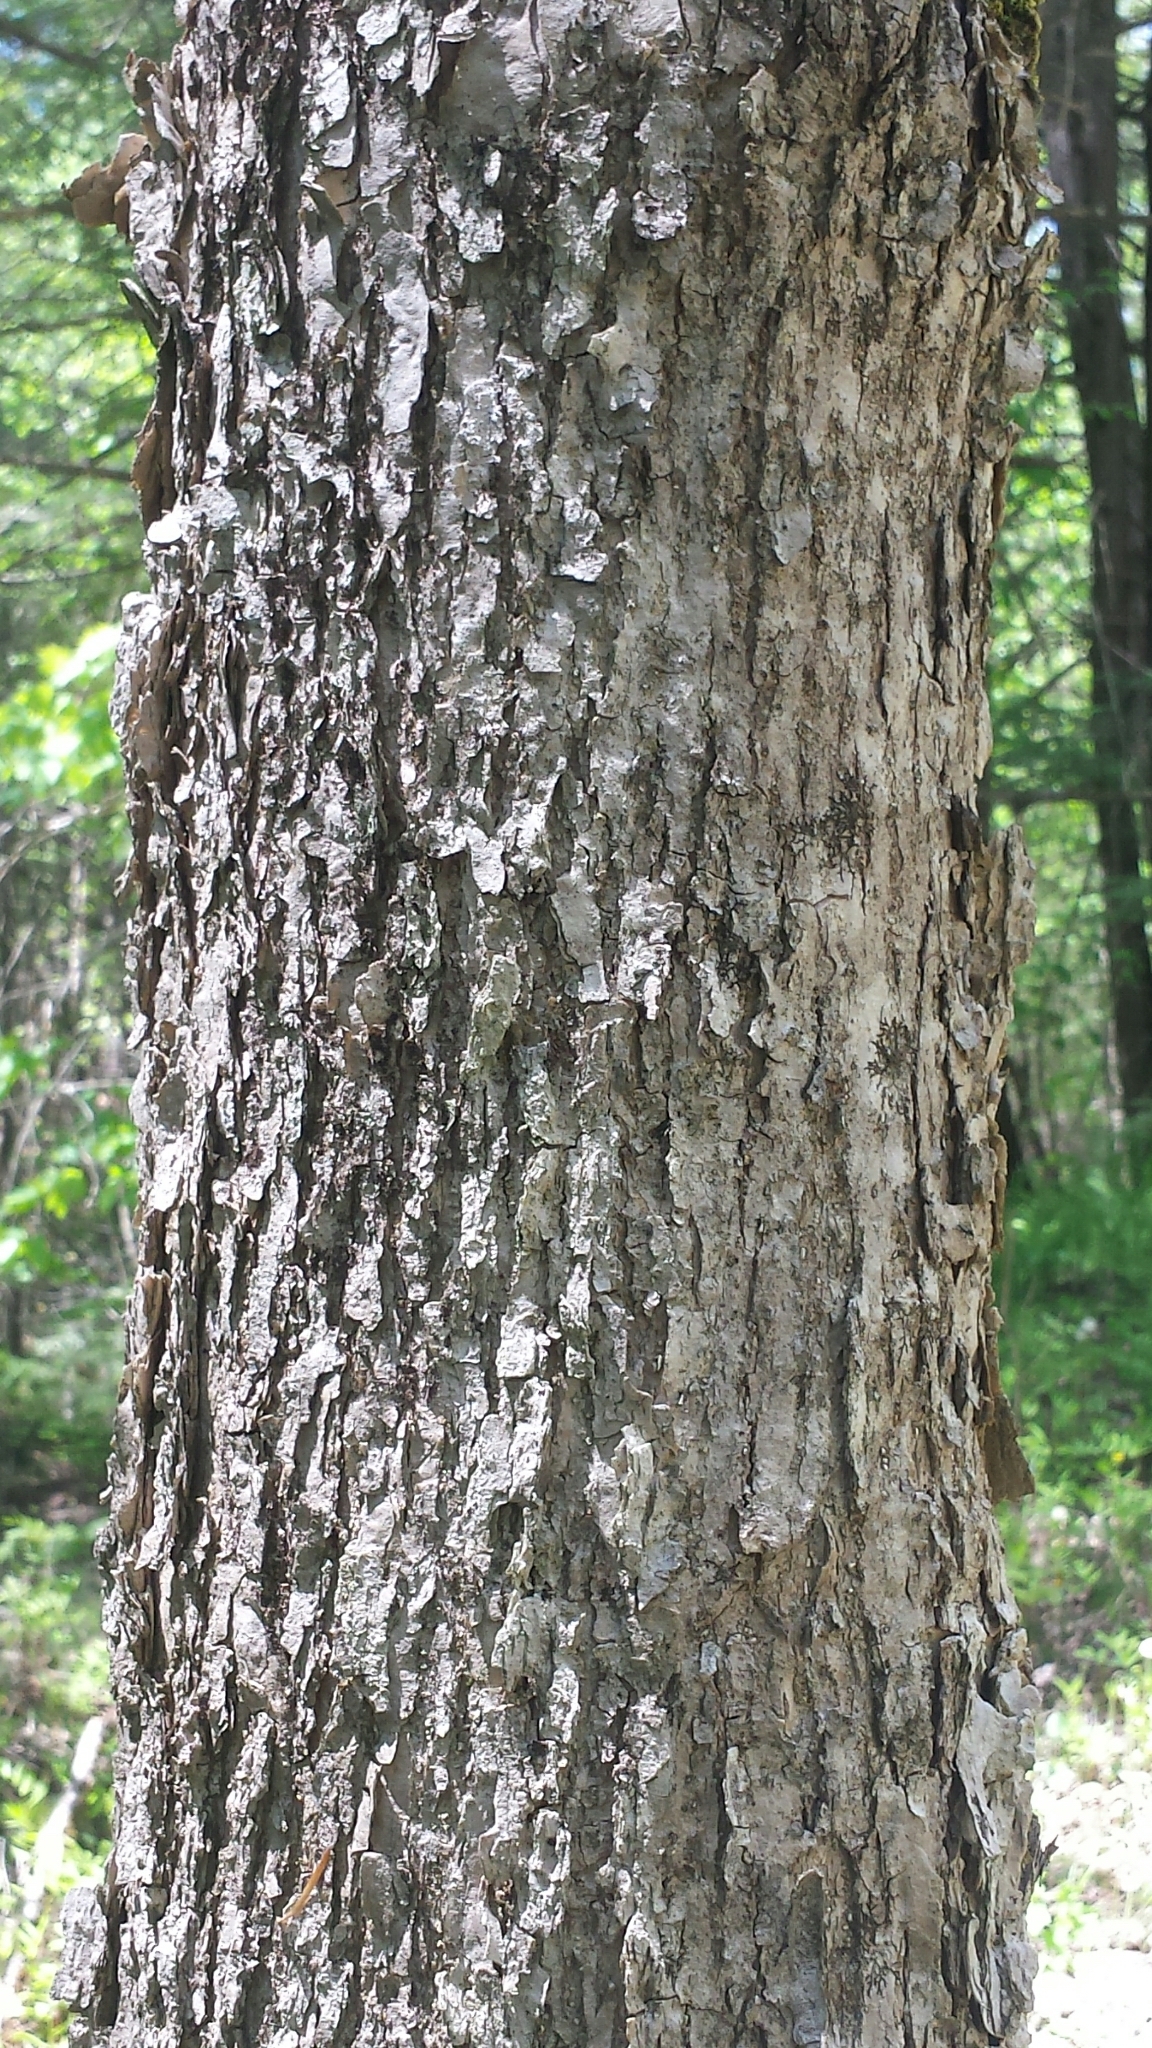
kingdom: Plantae
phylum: Tracheophyta
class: Magnoliopsida
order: Lamiales
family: Oleaceae
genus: Fraxinus
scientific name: Fraxinus nigra
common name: Black ash
